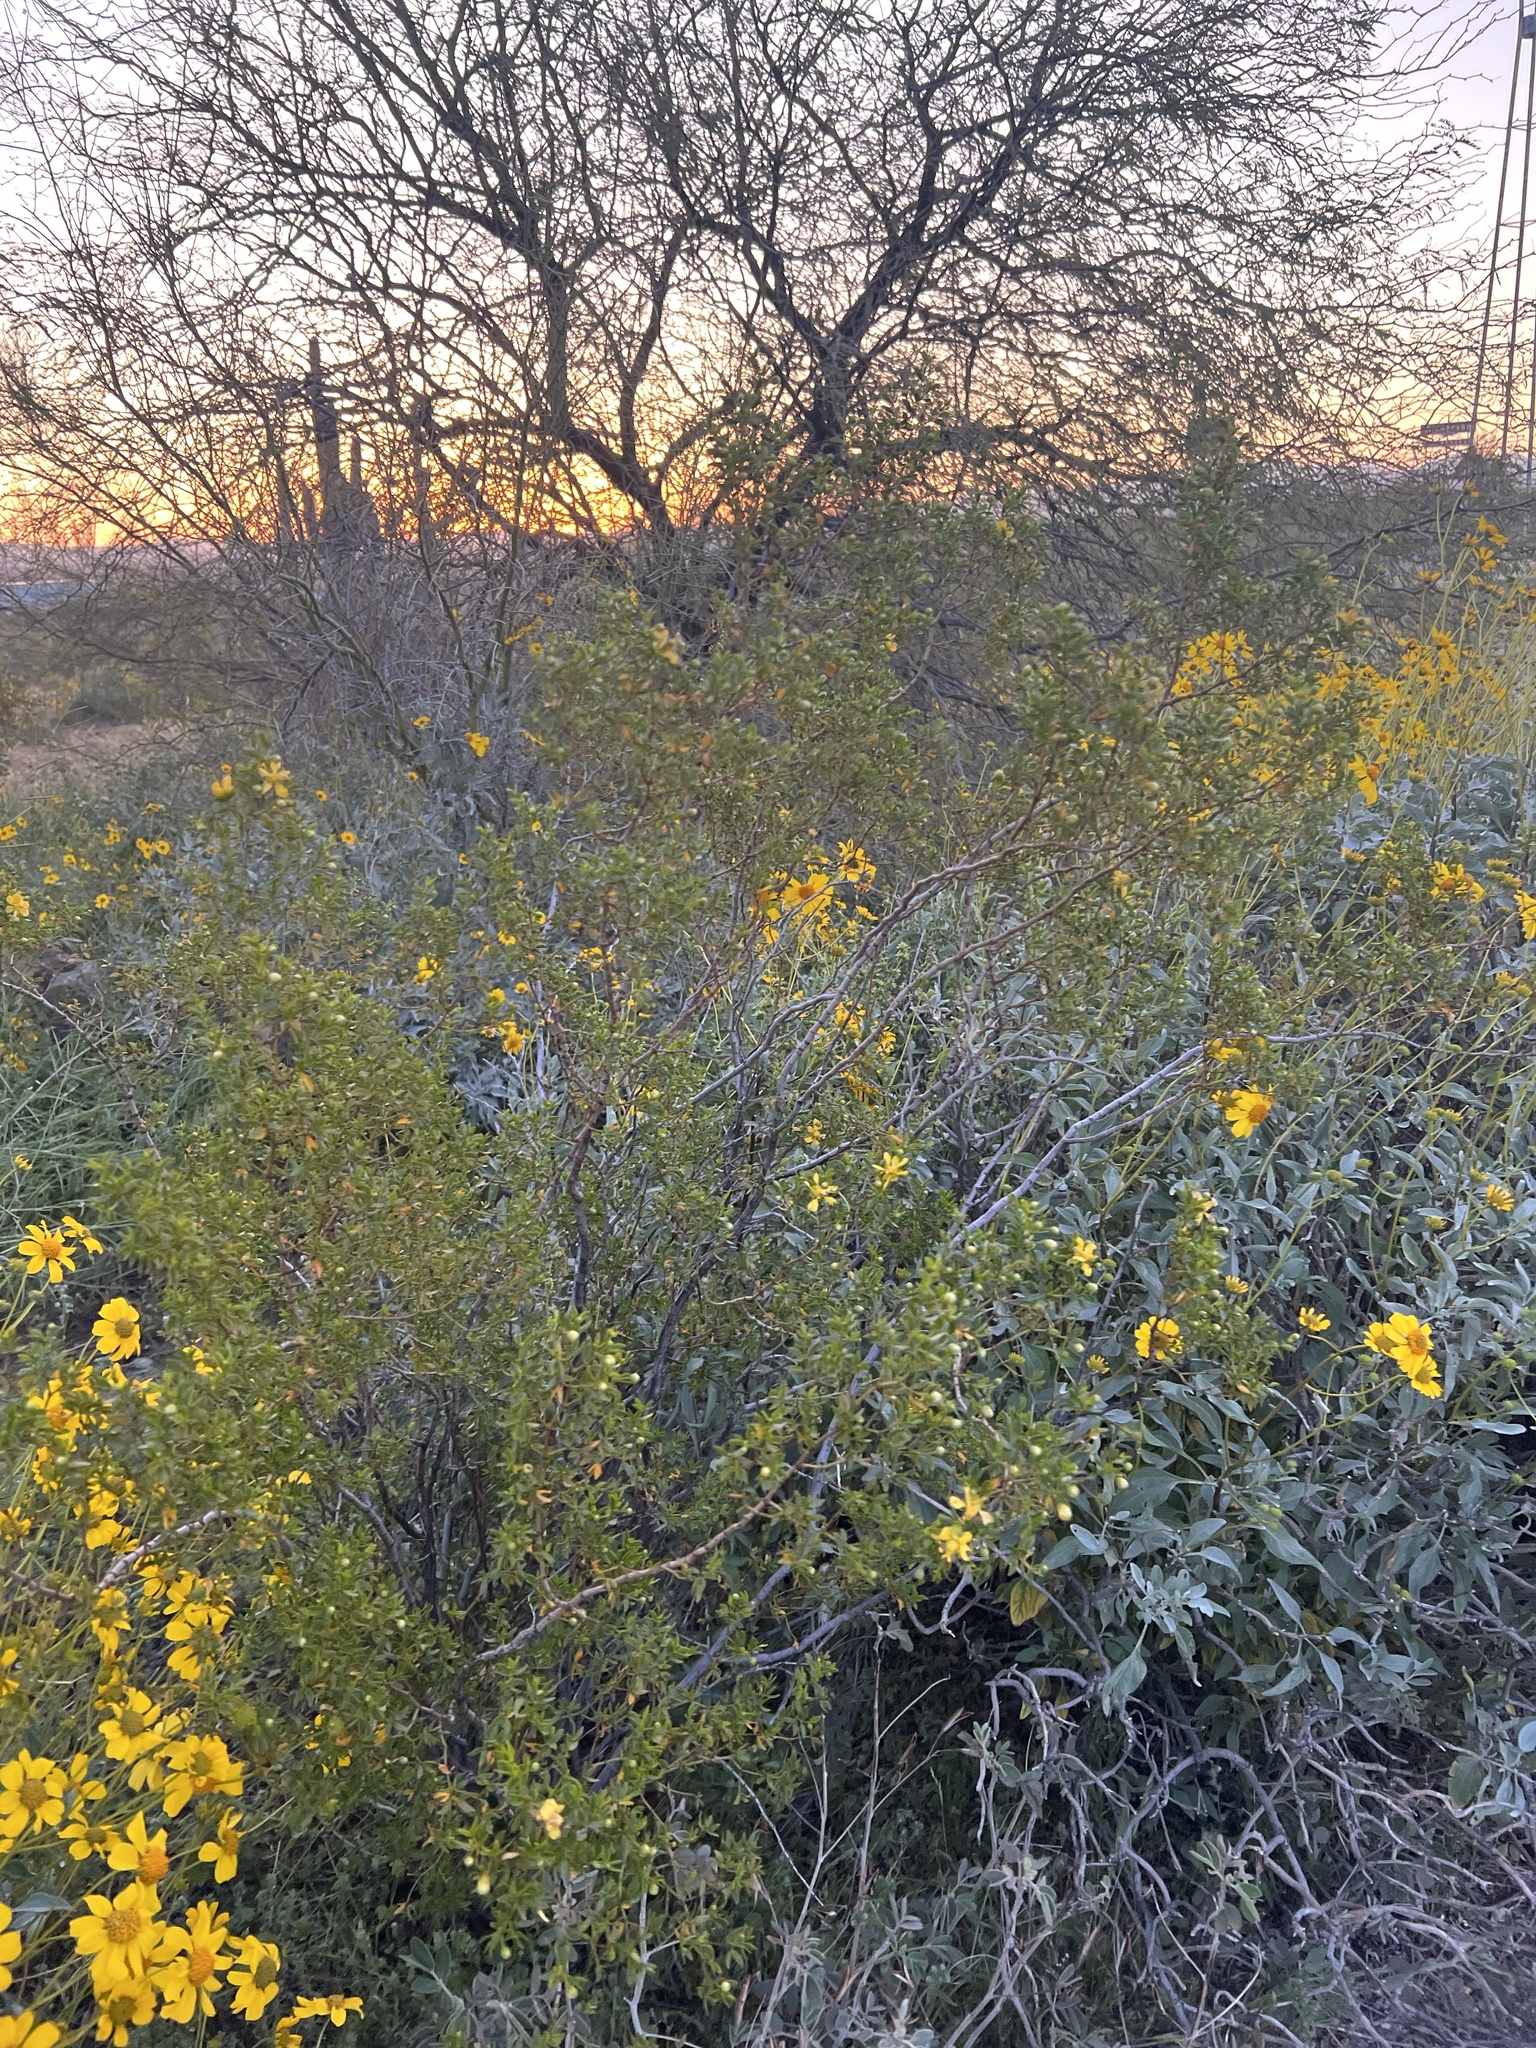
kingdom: Plantae
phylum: Tracheophyta
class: Magnoliopsida
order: Zygophyllales
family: Zygophyllaceae
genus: Larrea
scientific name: Larrea tridentata
